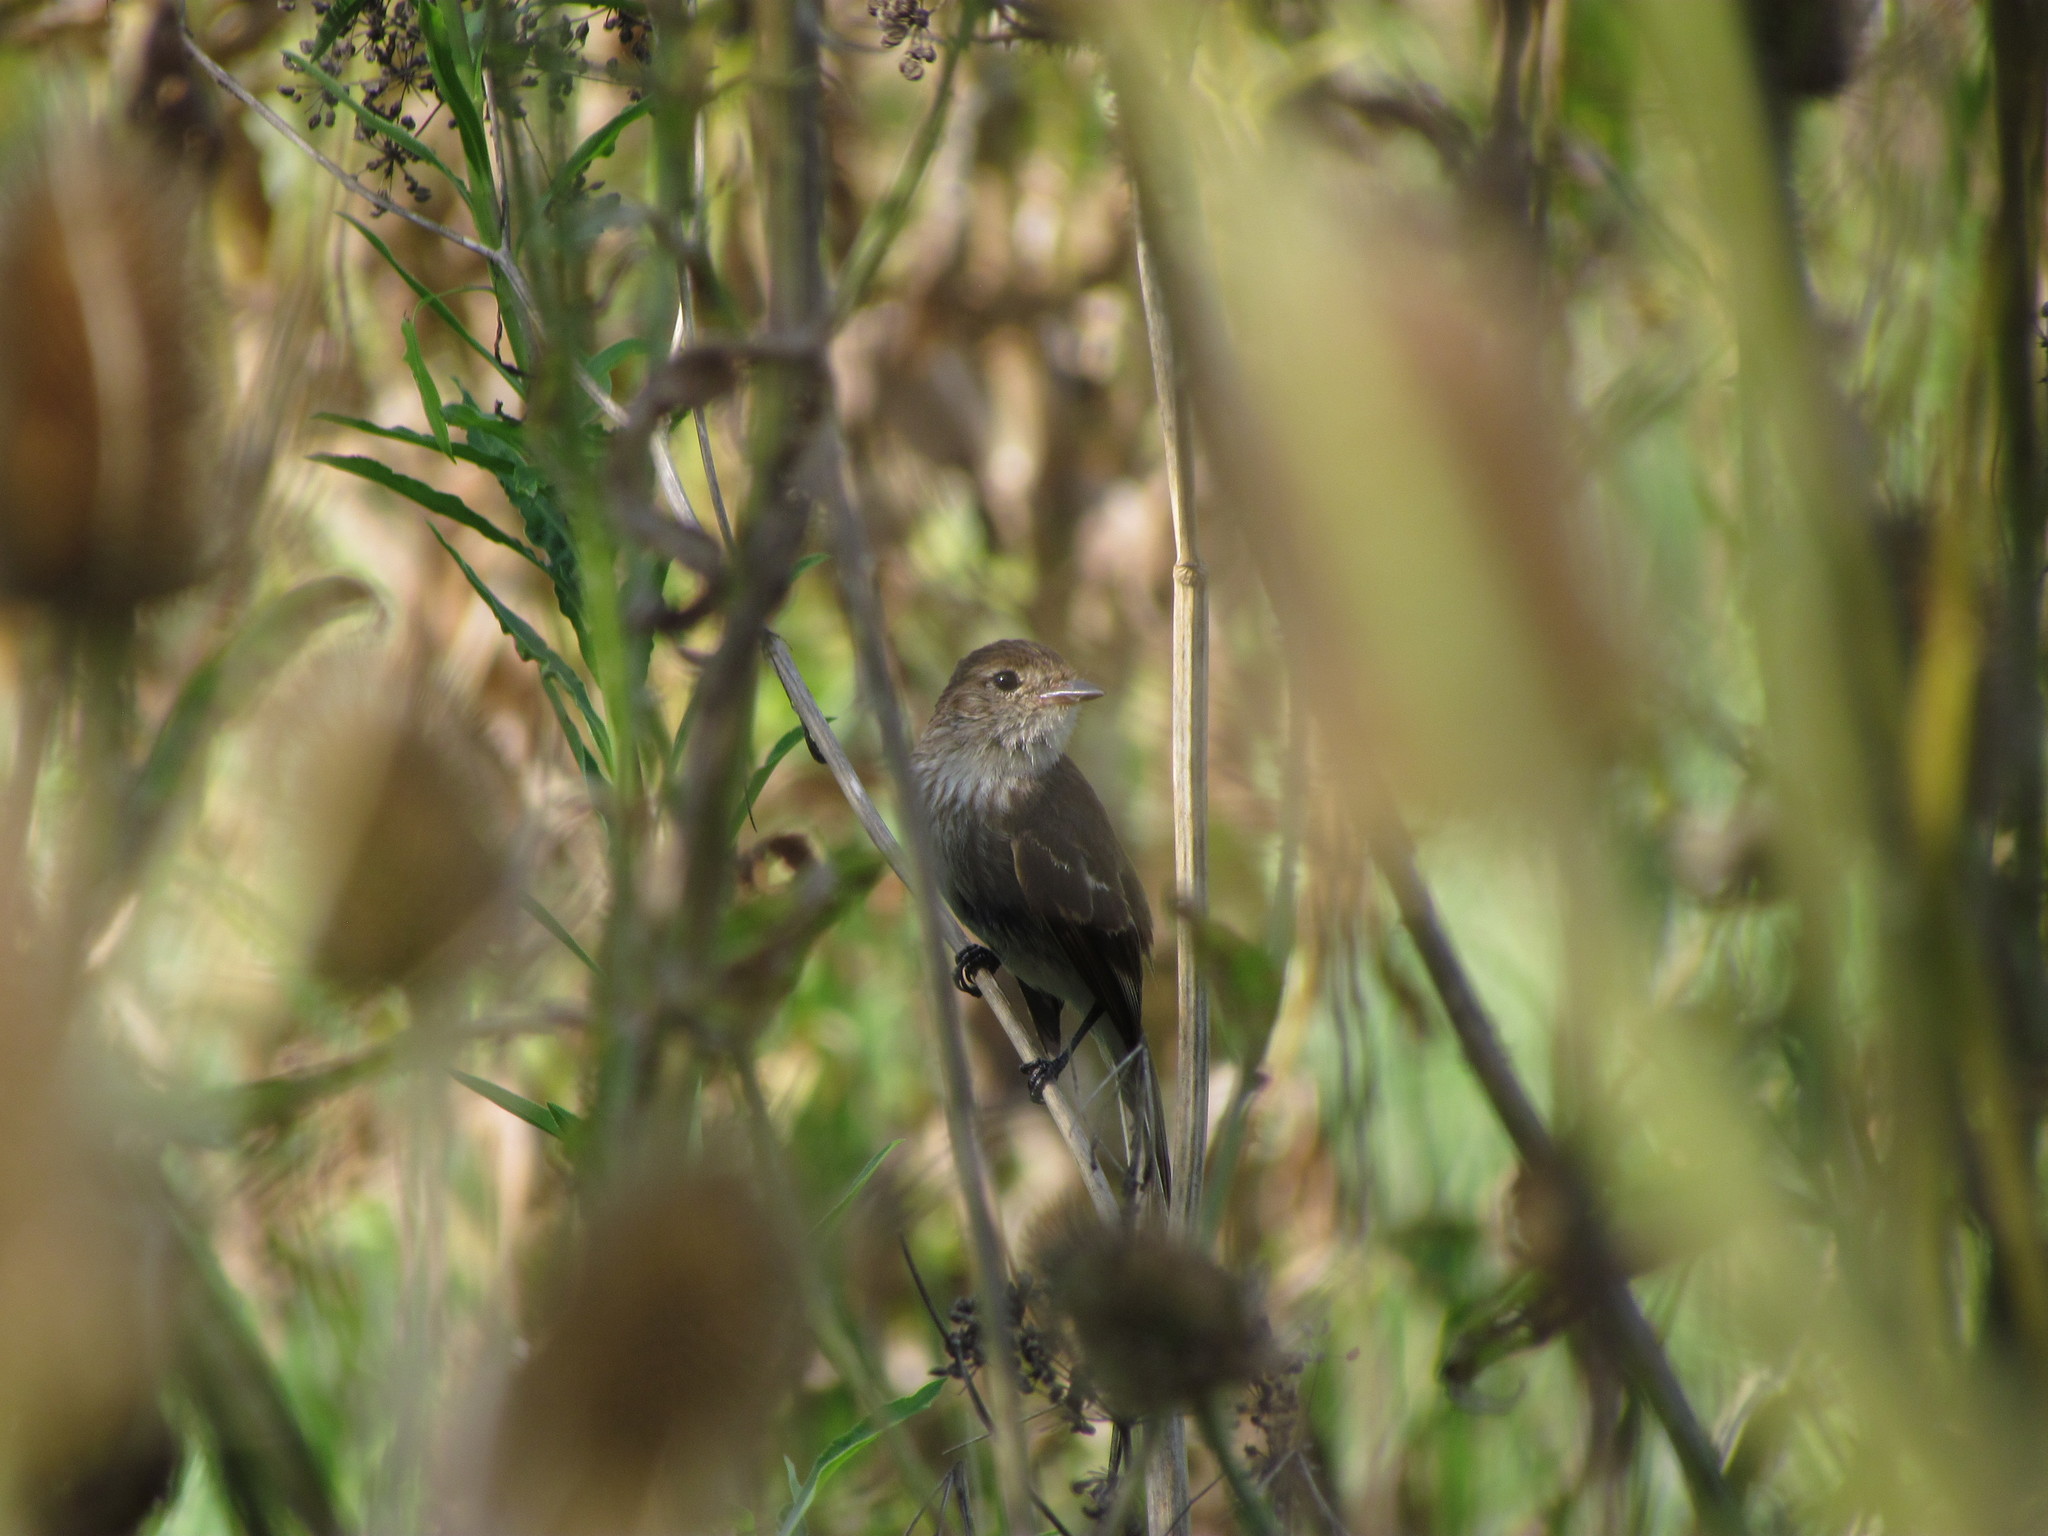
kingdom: Animalia
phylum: Chordata
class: Aves
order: Passeriformes
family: Tyrannidae
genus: Myiophobus
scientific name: Myiophobus fasciatus
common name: Bran-colored flycatcher
